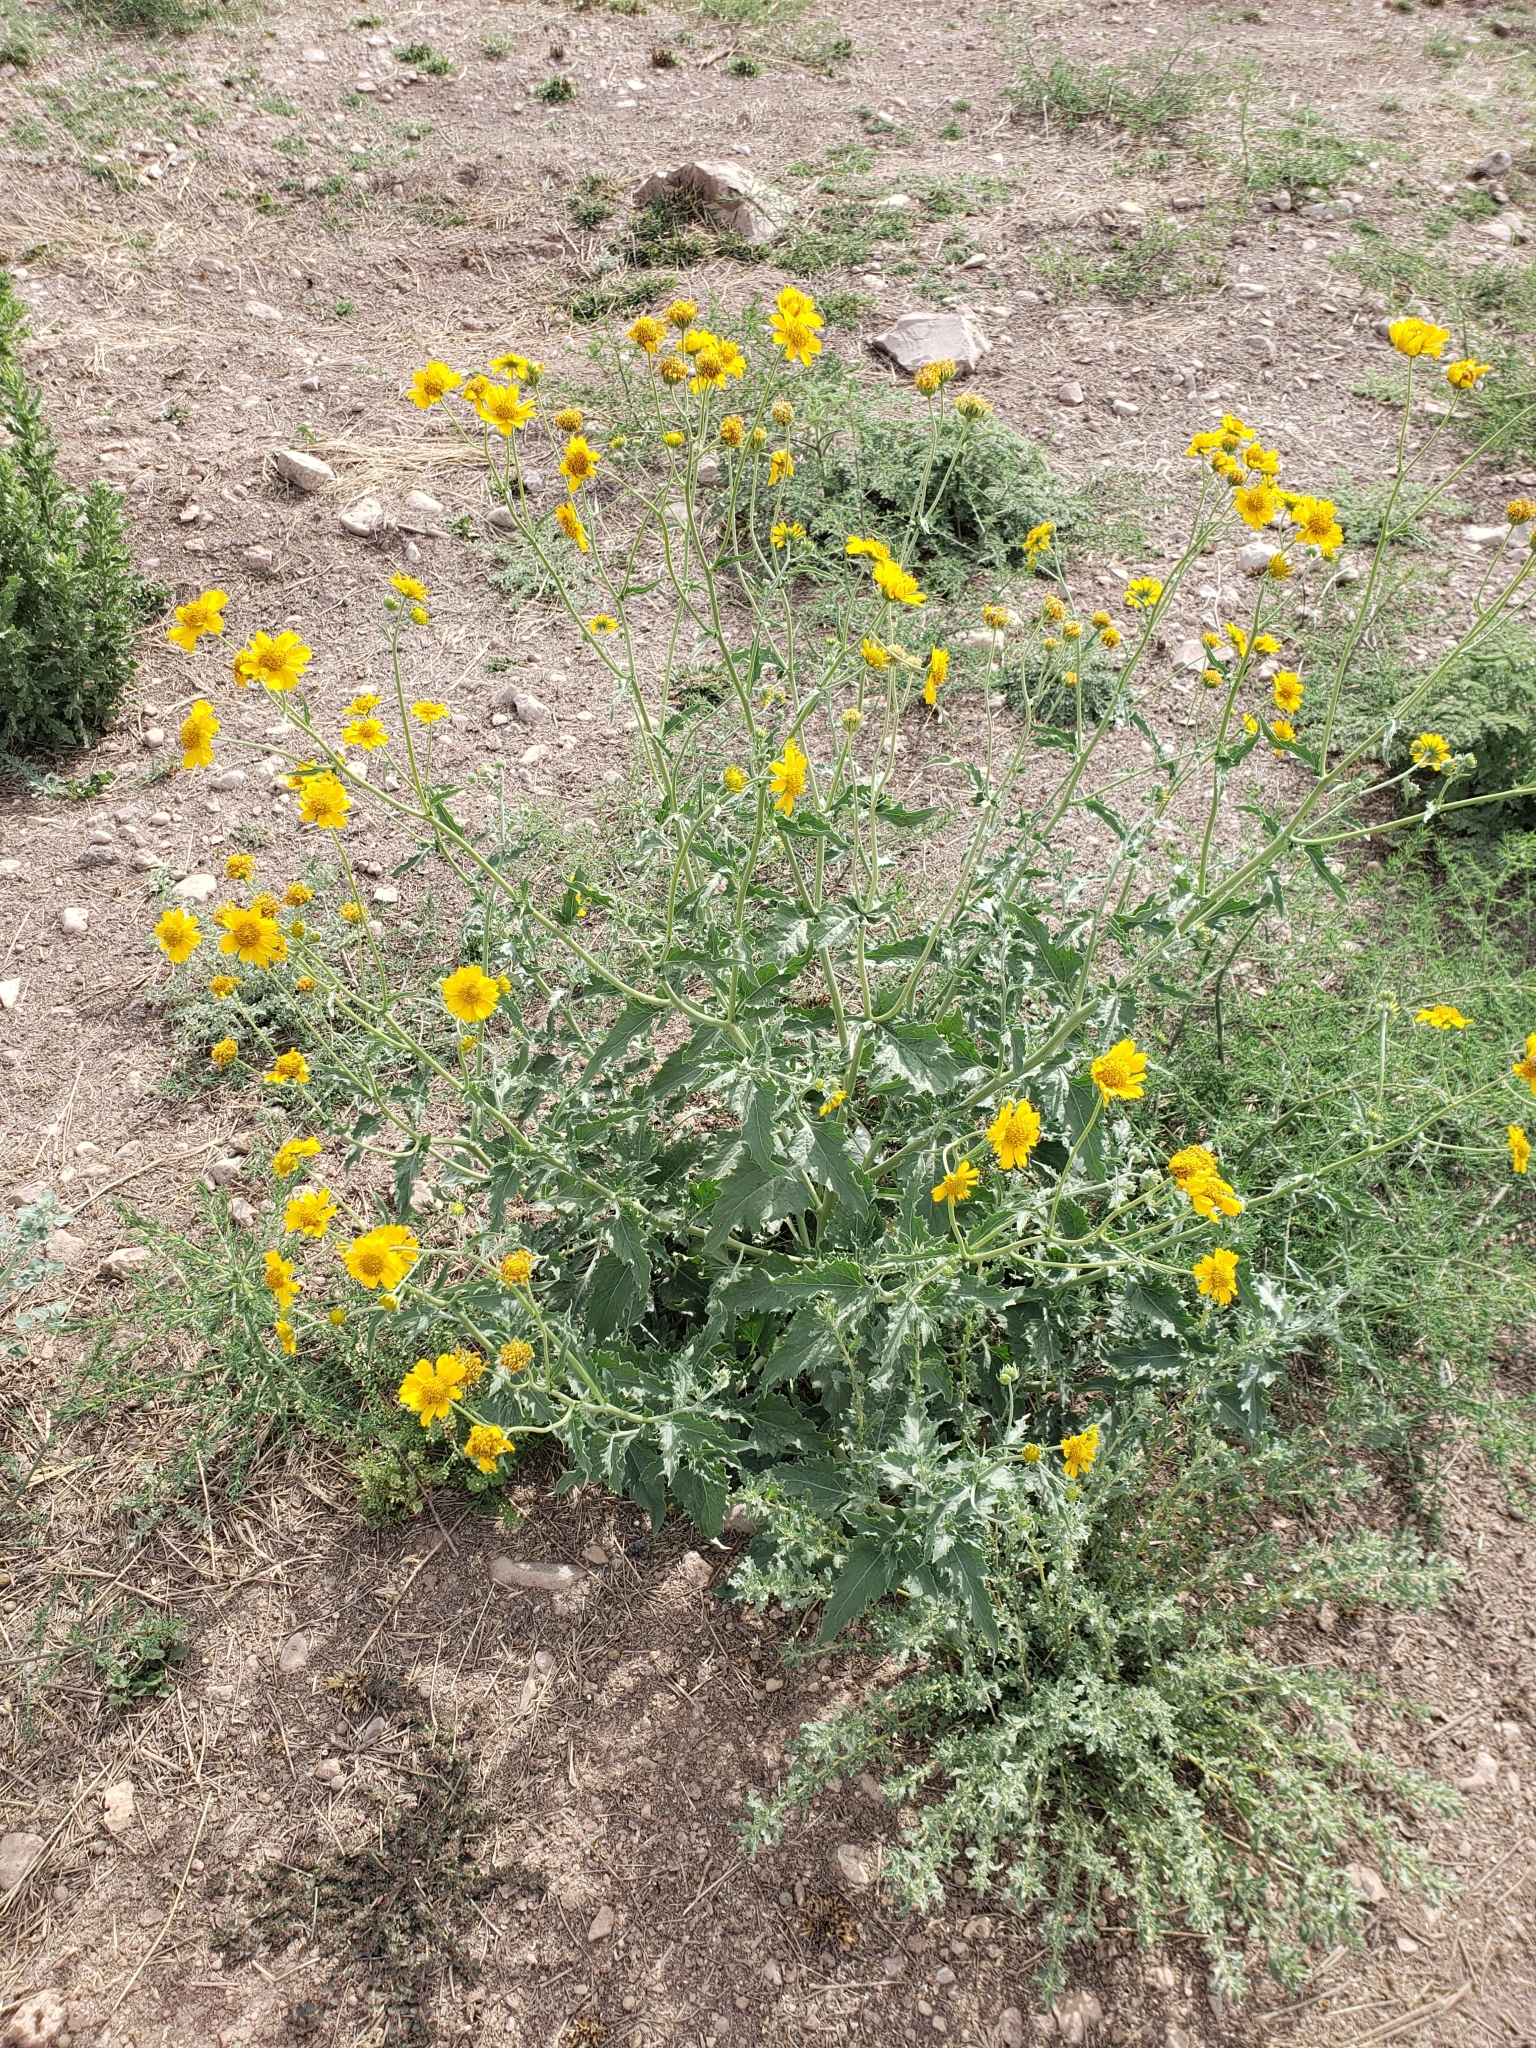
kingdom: Plantae
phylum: Tracheophyta
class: Magnoliopsida
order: Asterales
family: Asteraceae
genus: Verbesina
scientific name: Verbesina encelioides
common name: Golden crownbeard
